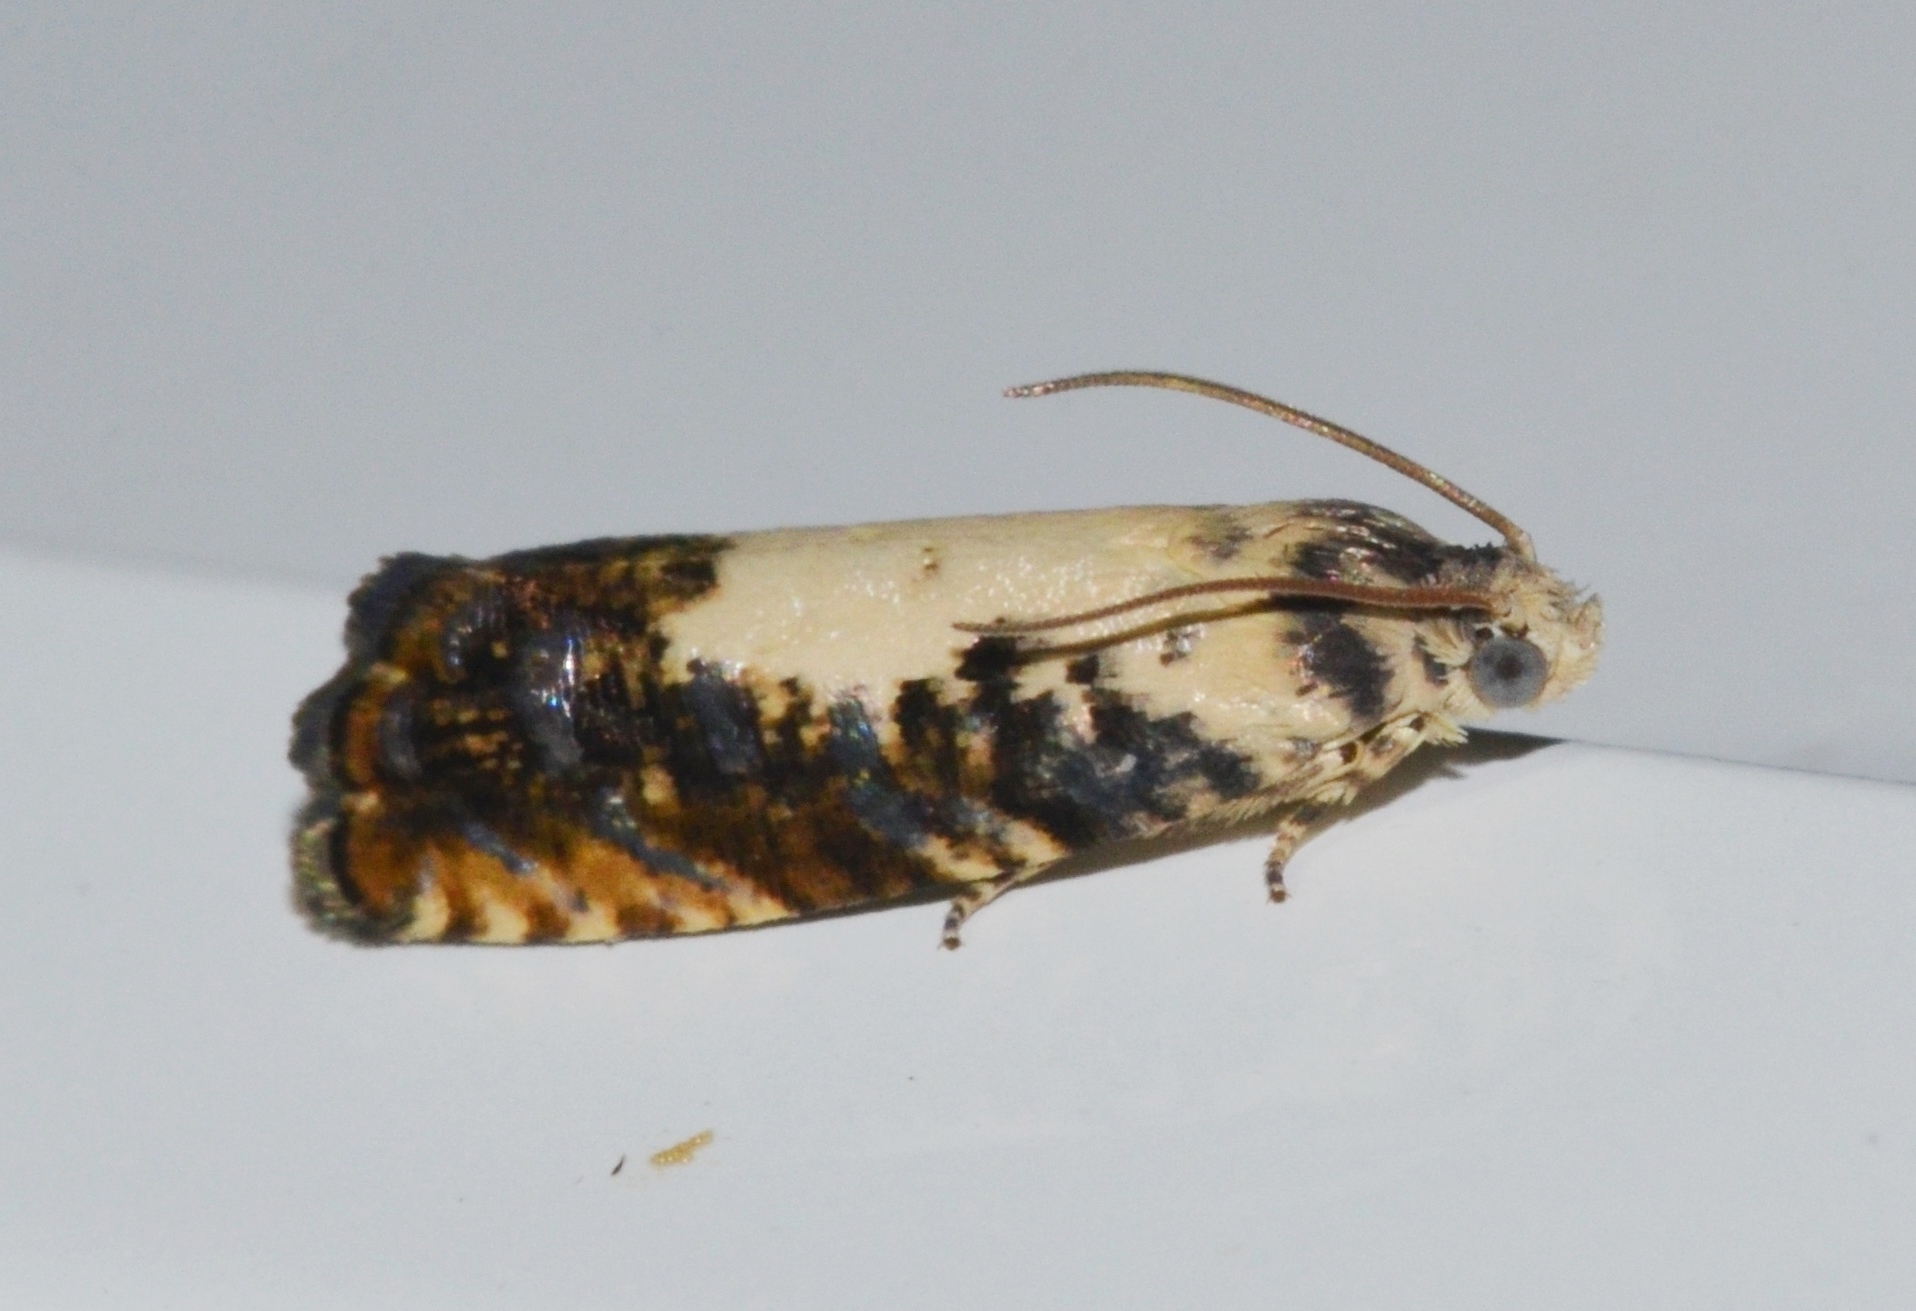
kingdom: Animalia
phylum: Arthropoda
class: Insecta
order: Lepidoptera
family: Tortricidae
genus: Pammene
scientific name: Pammene felicitana
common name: Happy pammene
